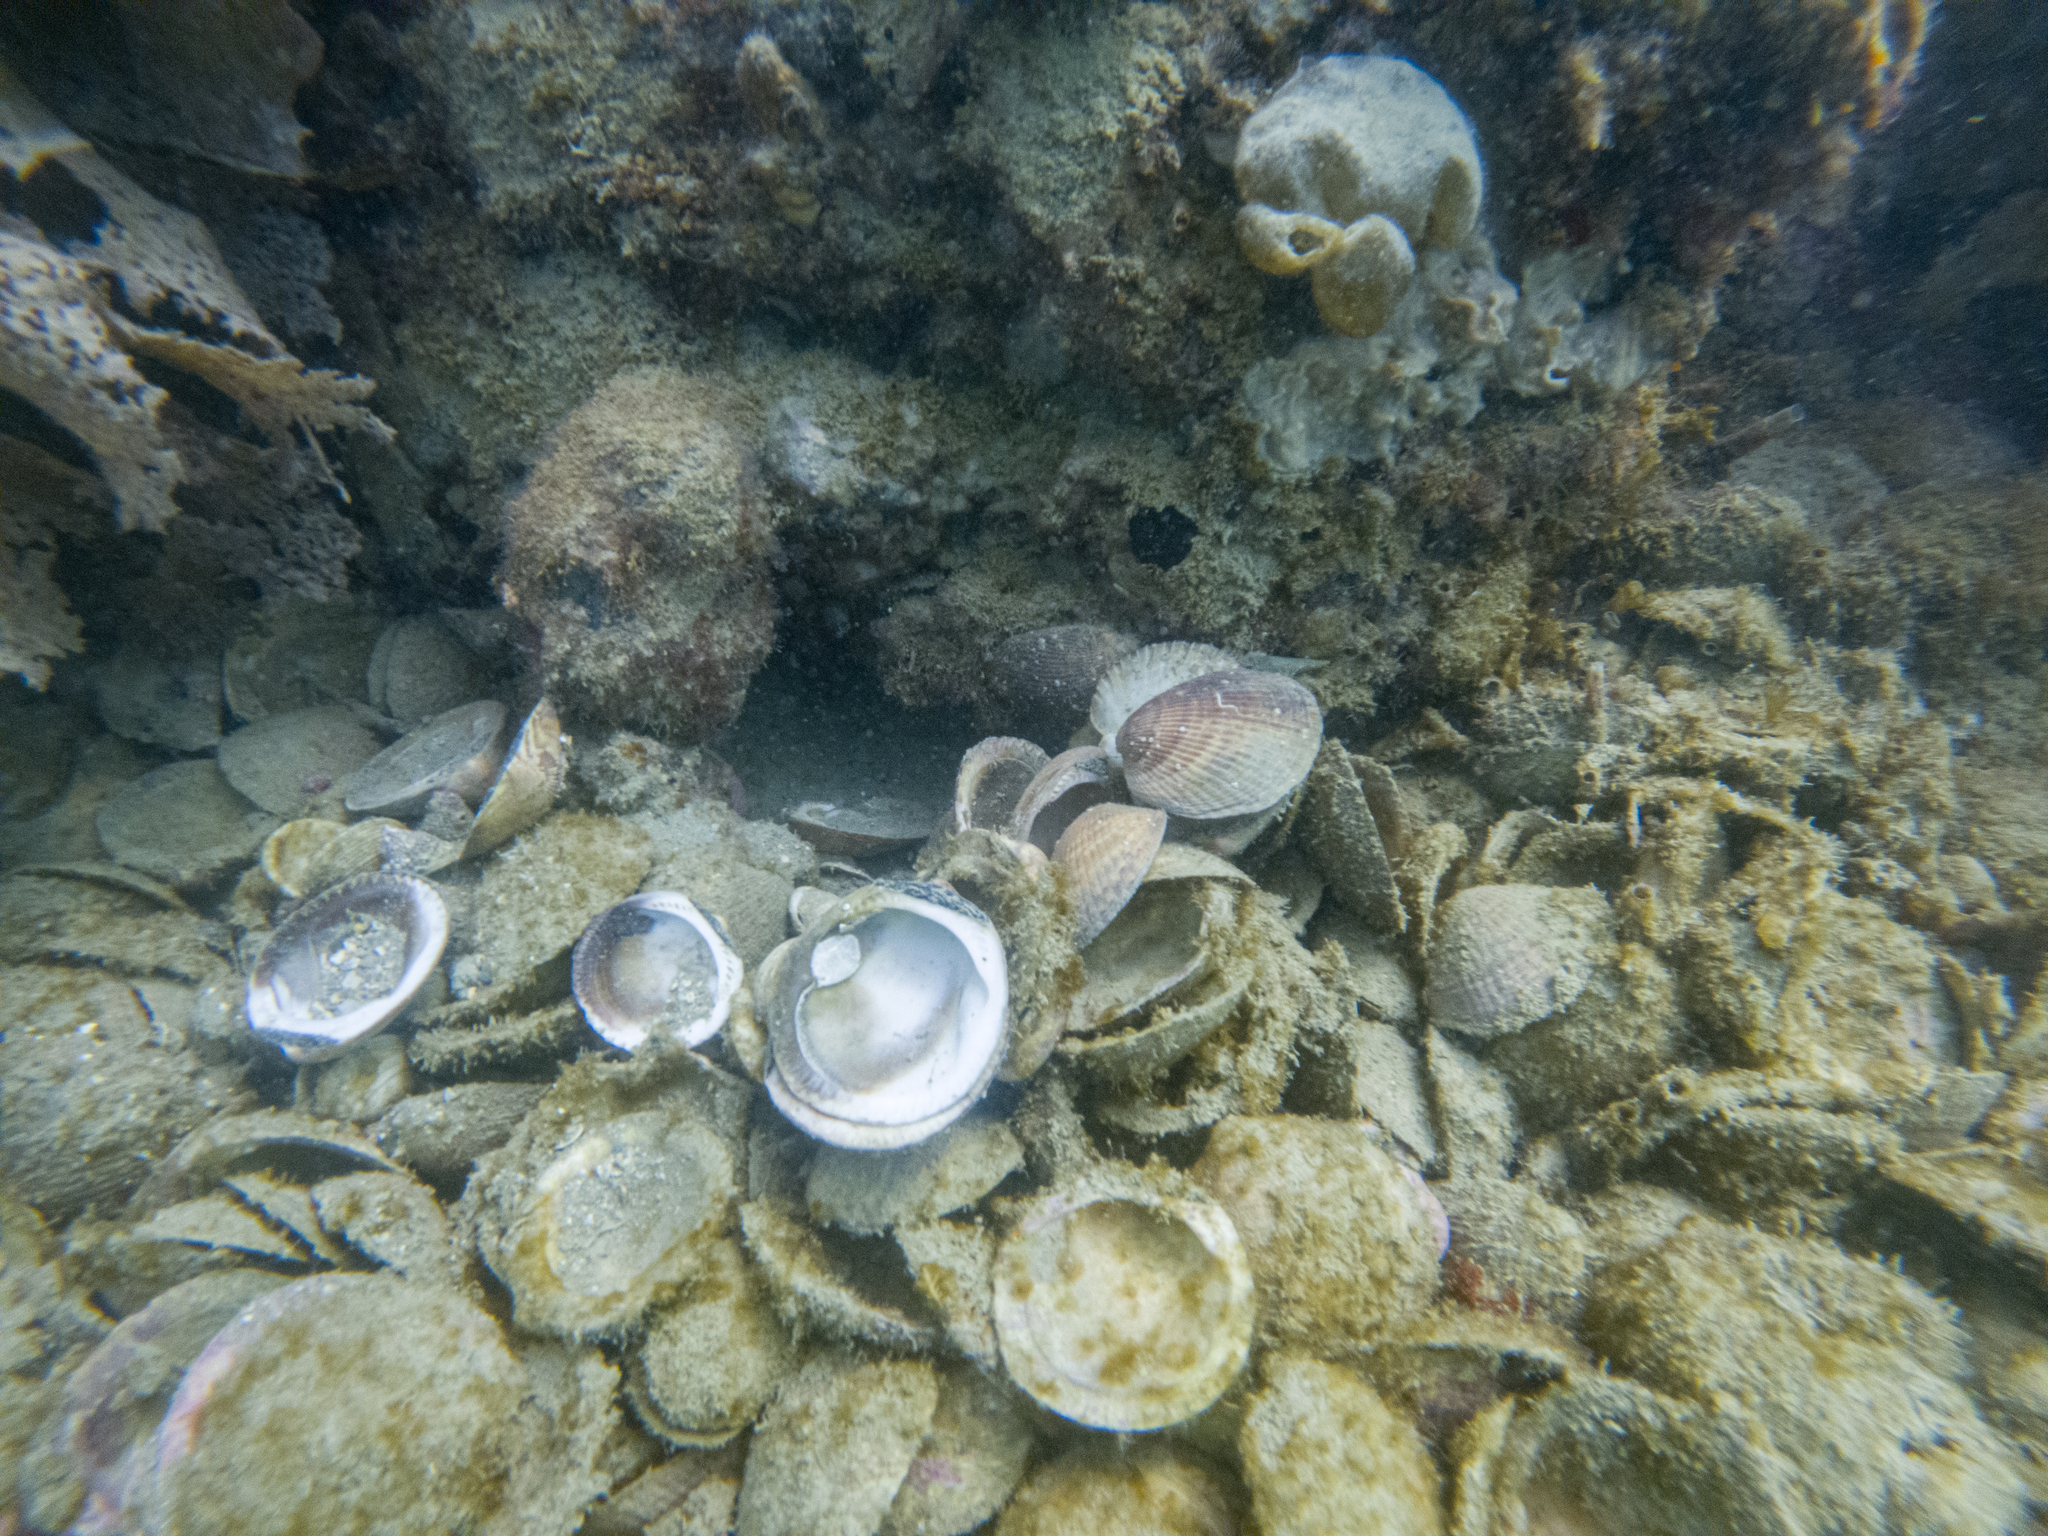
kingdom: Animalia
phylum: Mollusca
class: Bivalvia
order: Arcida
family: Glycymerididae
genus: Tucetona
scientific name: Tucetona laticostata
